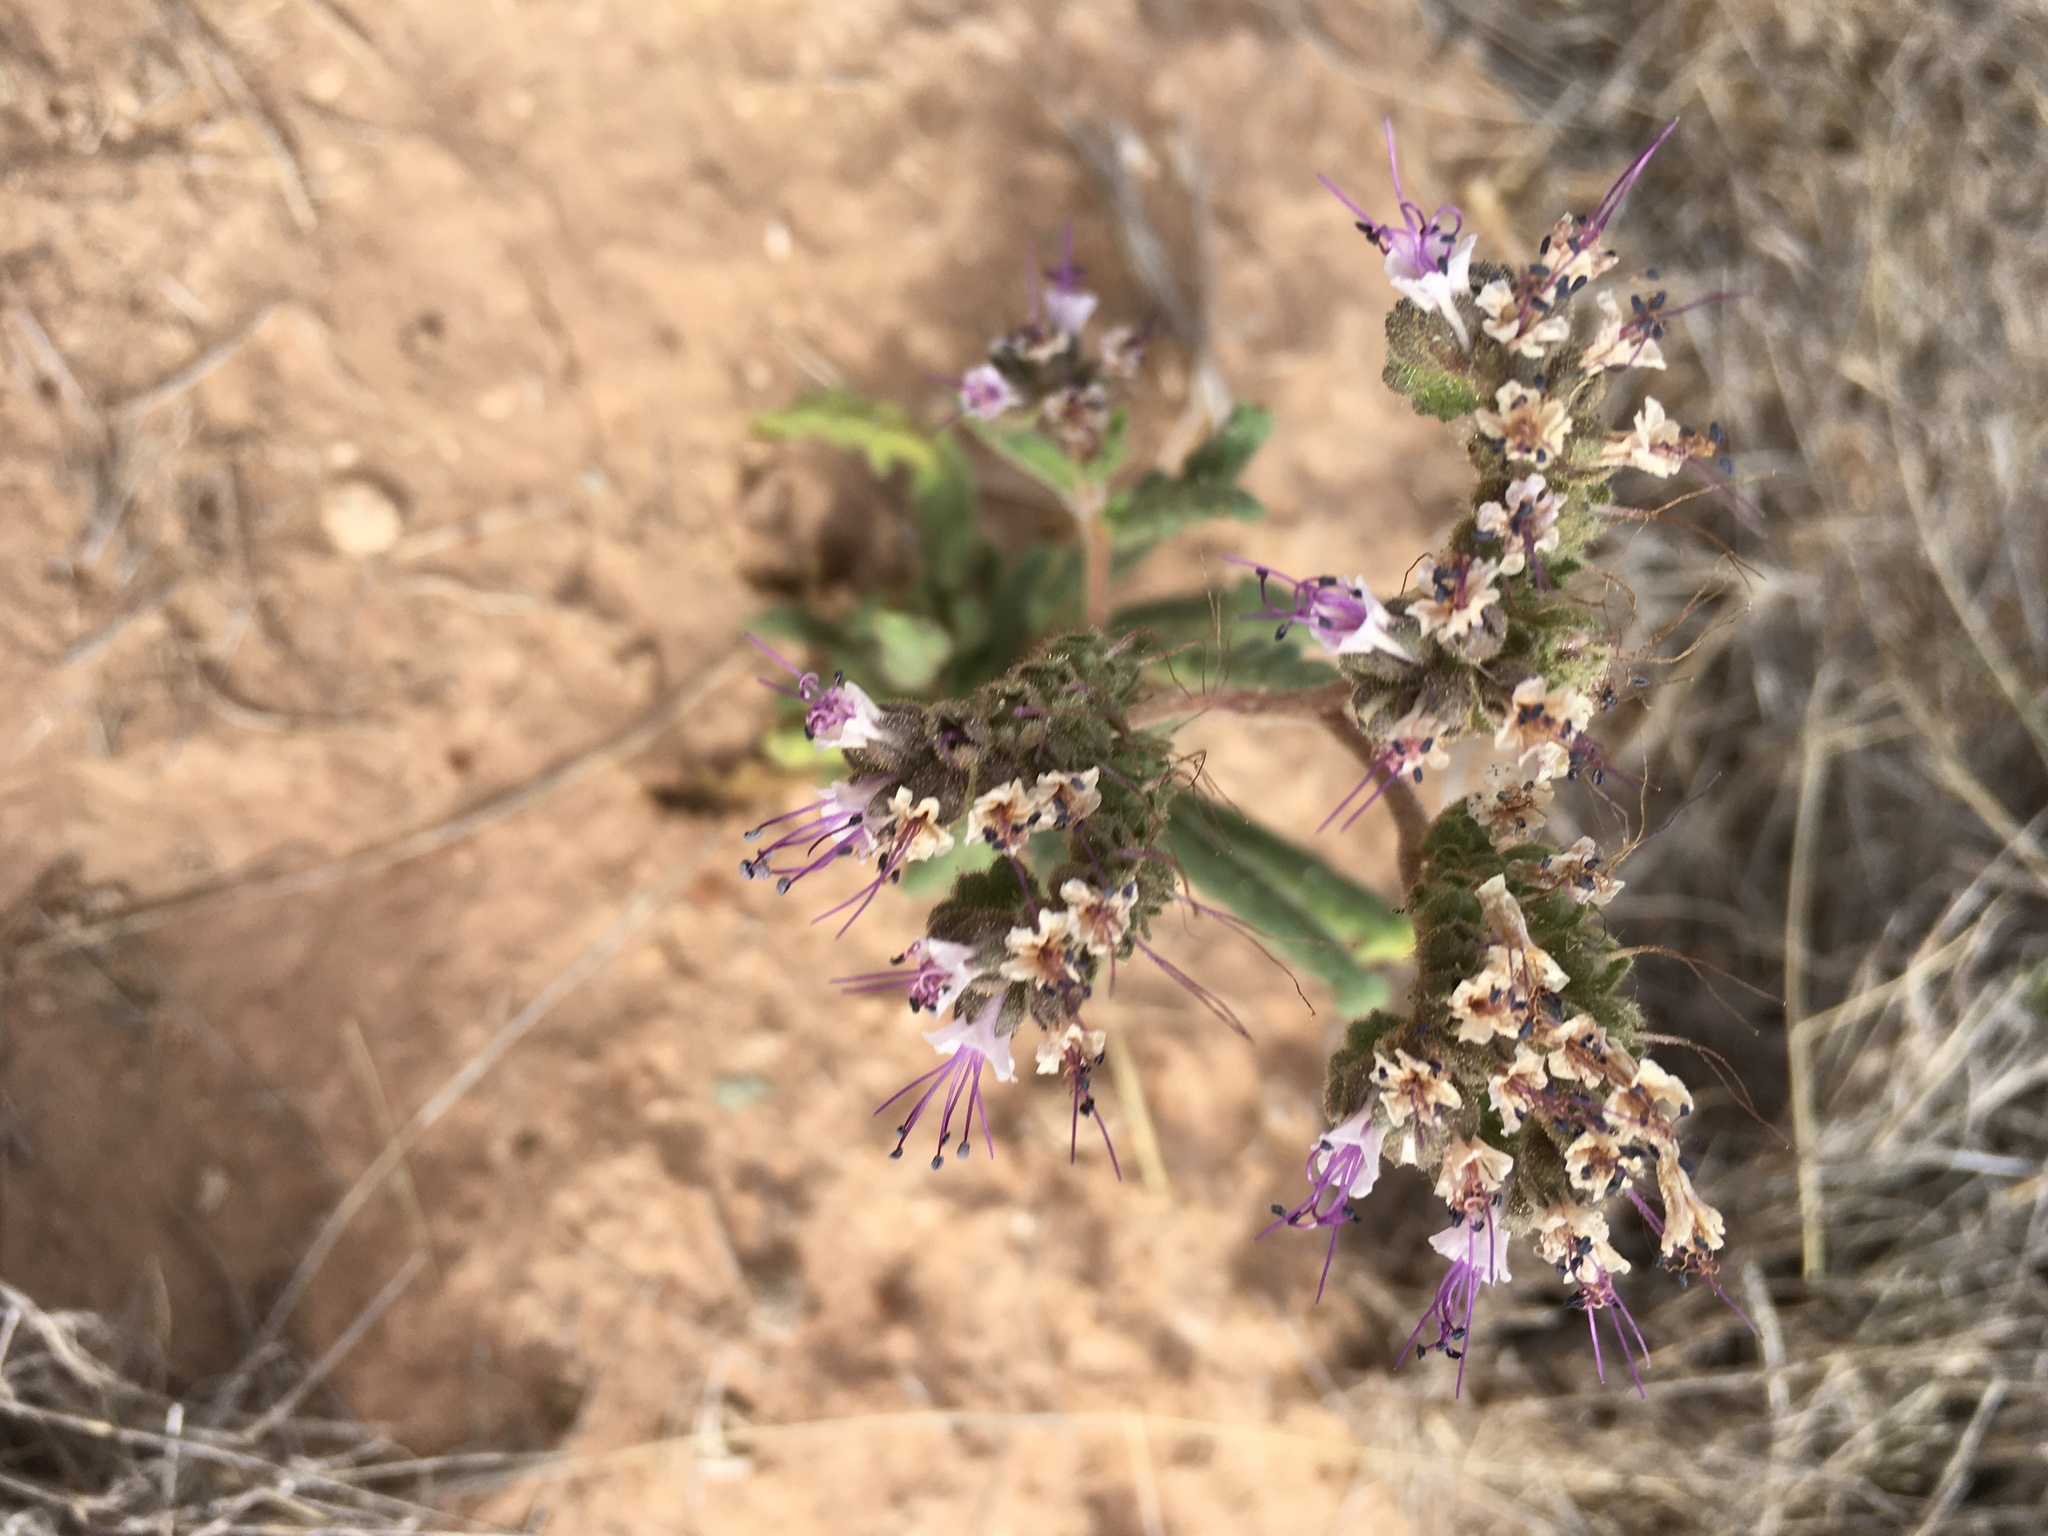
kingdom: Plantae
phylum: Tracheophyta
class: Magnoliopsida
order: Boraginales
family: Hydrophyllaceae
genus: Phacelia
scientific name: Phacelia integrifolia
